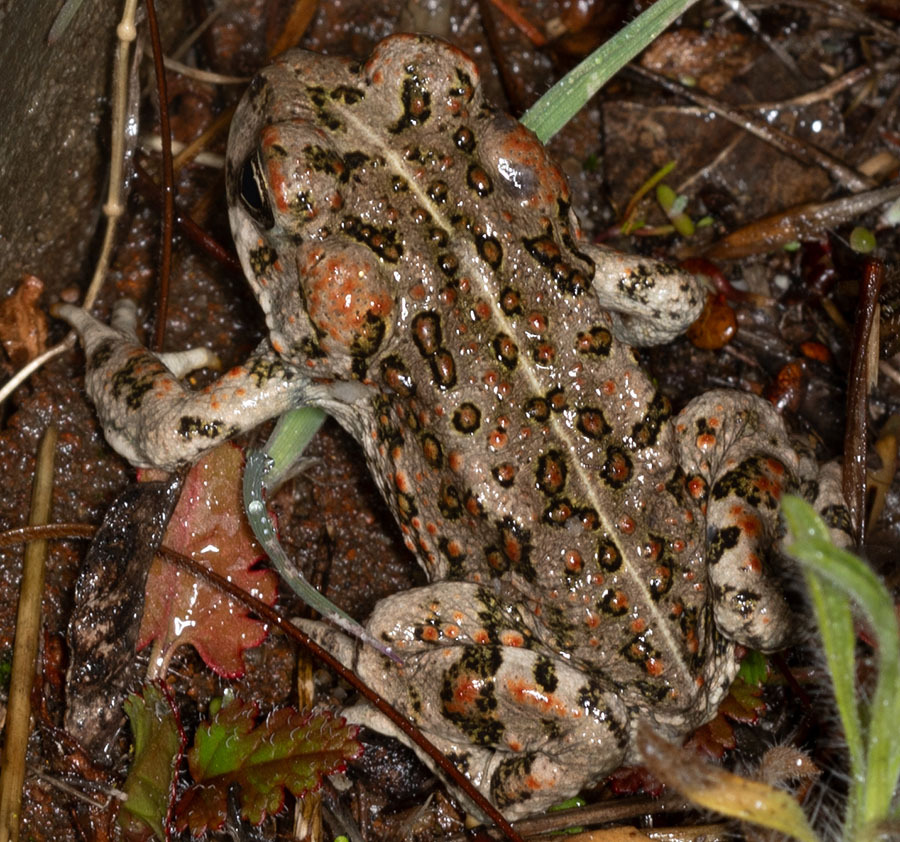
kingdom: Animalia
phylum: Chordata
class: Amphibia
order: Anura
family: Bufonidae
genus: Anaxyrus
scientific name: Anaxyrus boreas
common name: Western toad
